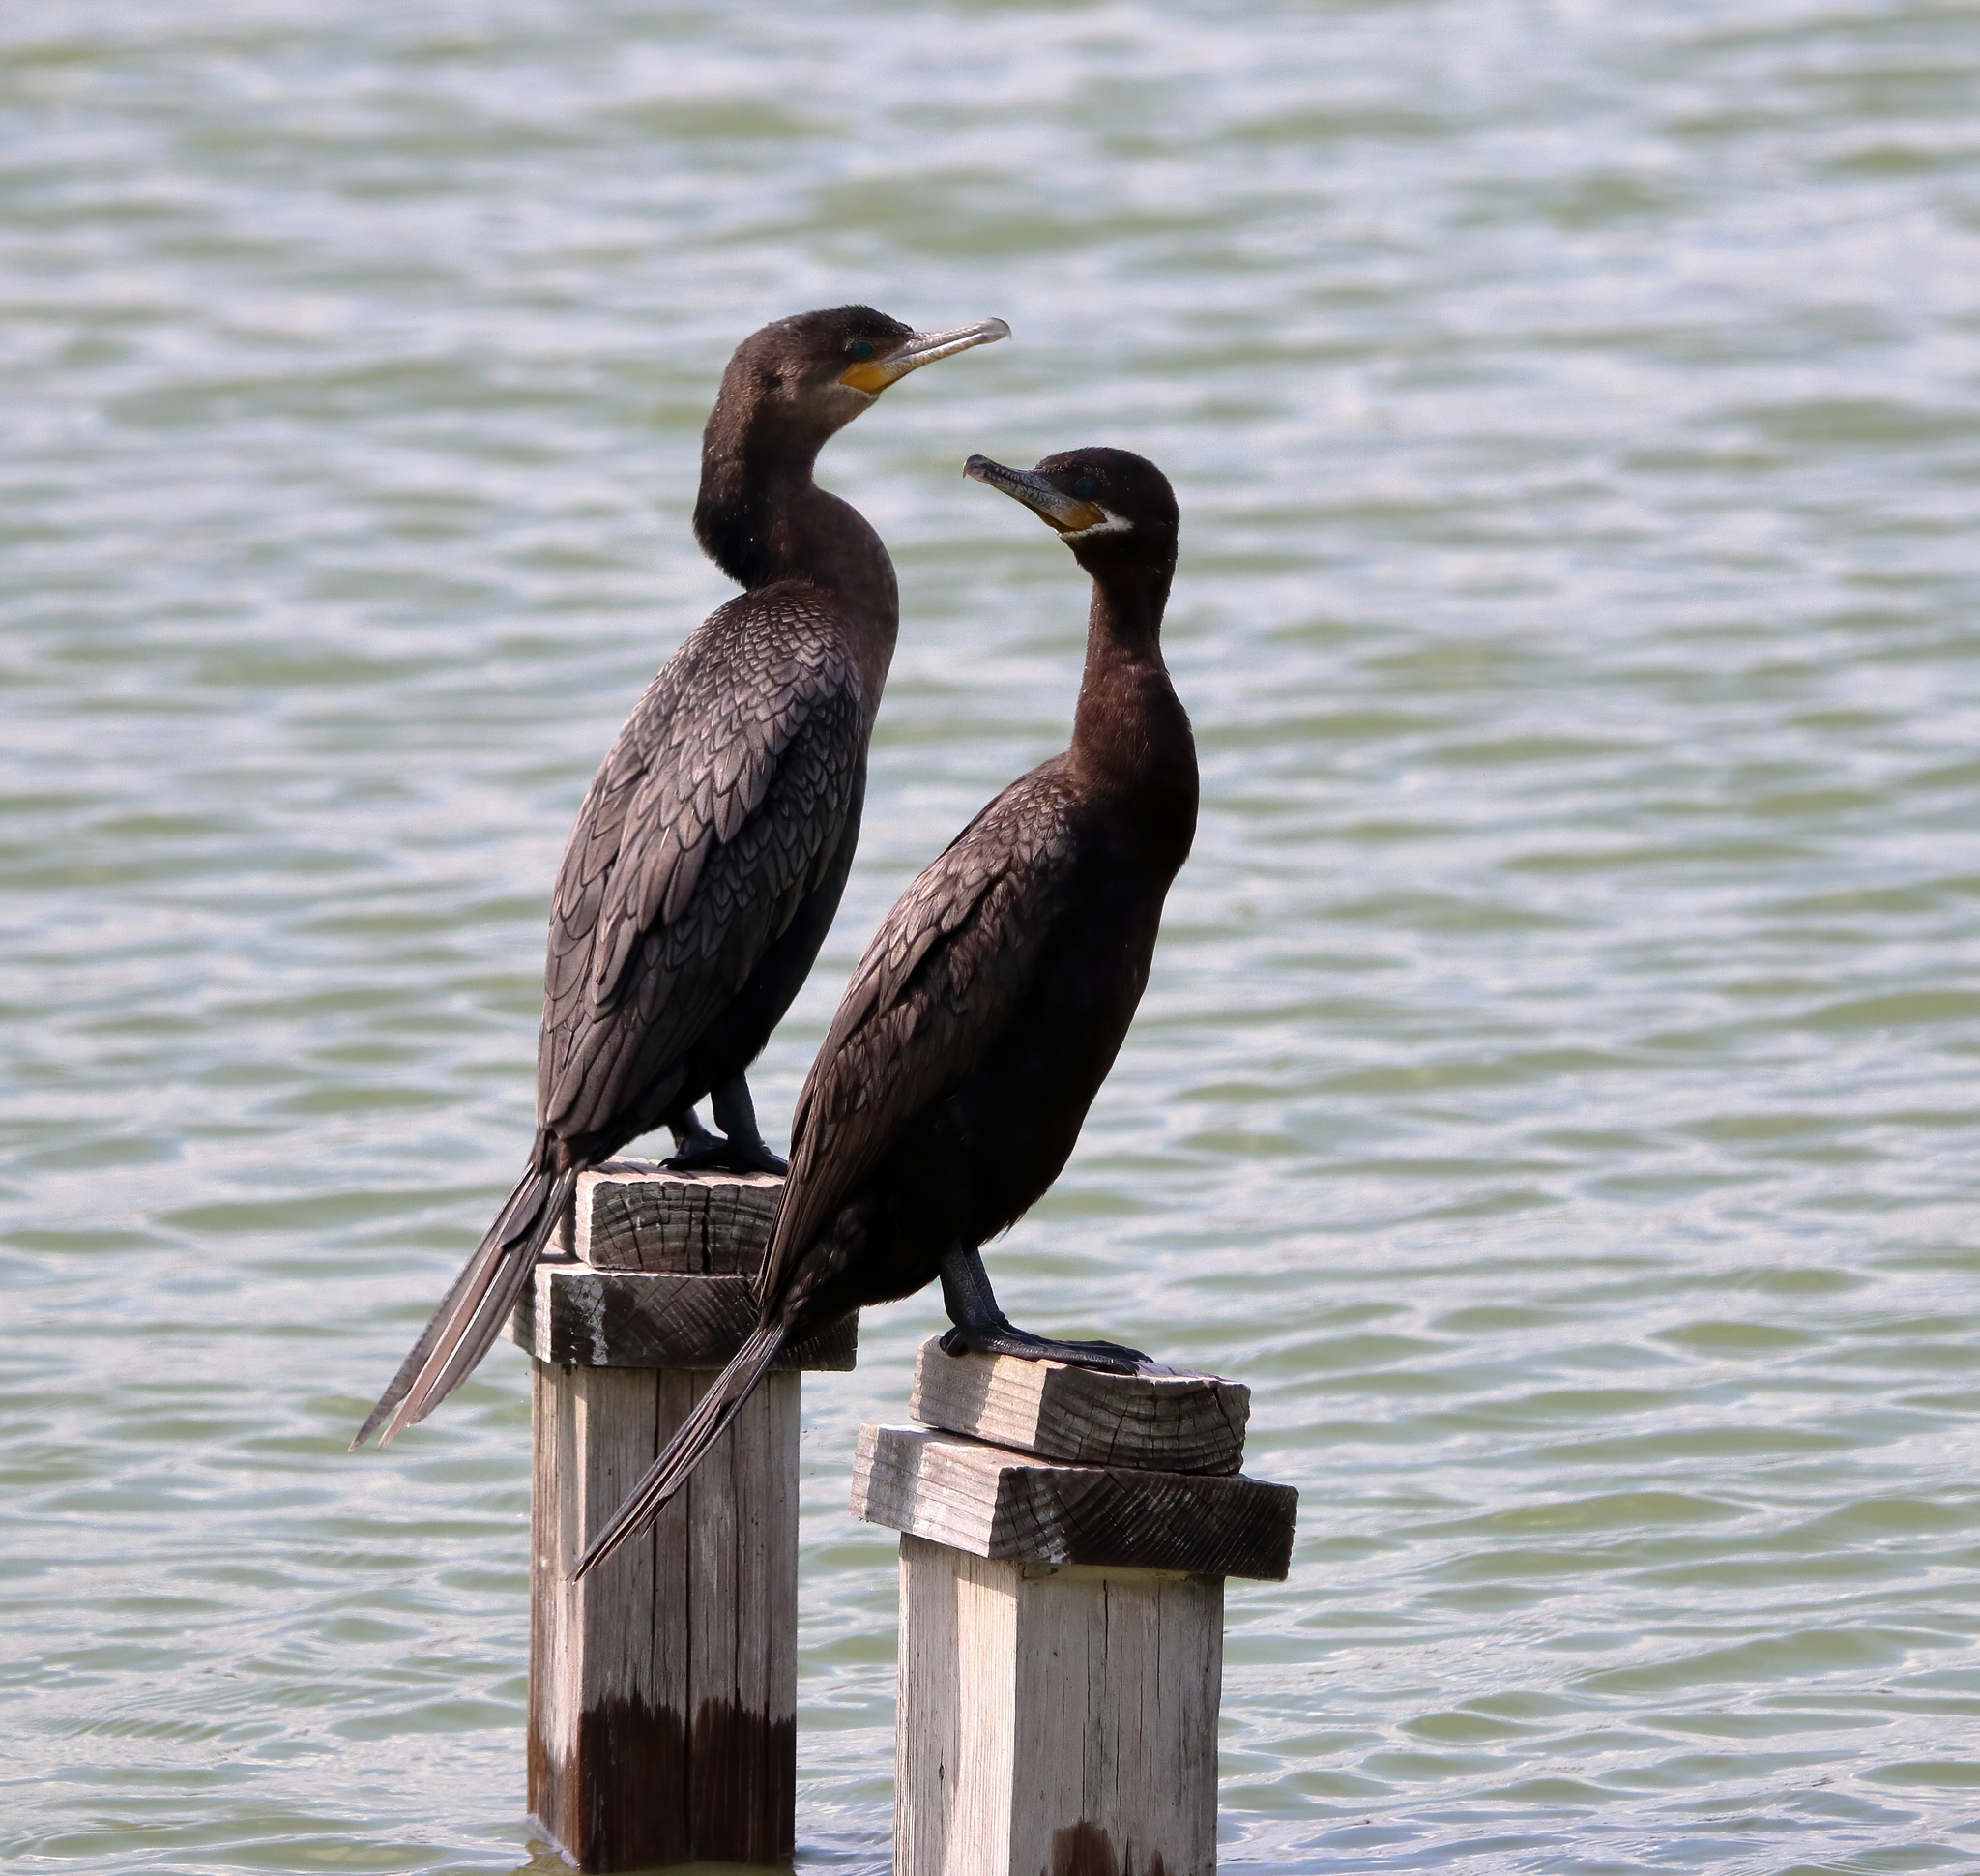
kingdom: Animalia
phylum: Chordata
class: Aves
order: Suliformes
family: Phalacrocoracidae
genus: Phalacrocorax
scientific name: Phalacrocorax brasilianus
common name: Neotropic cormorant
